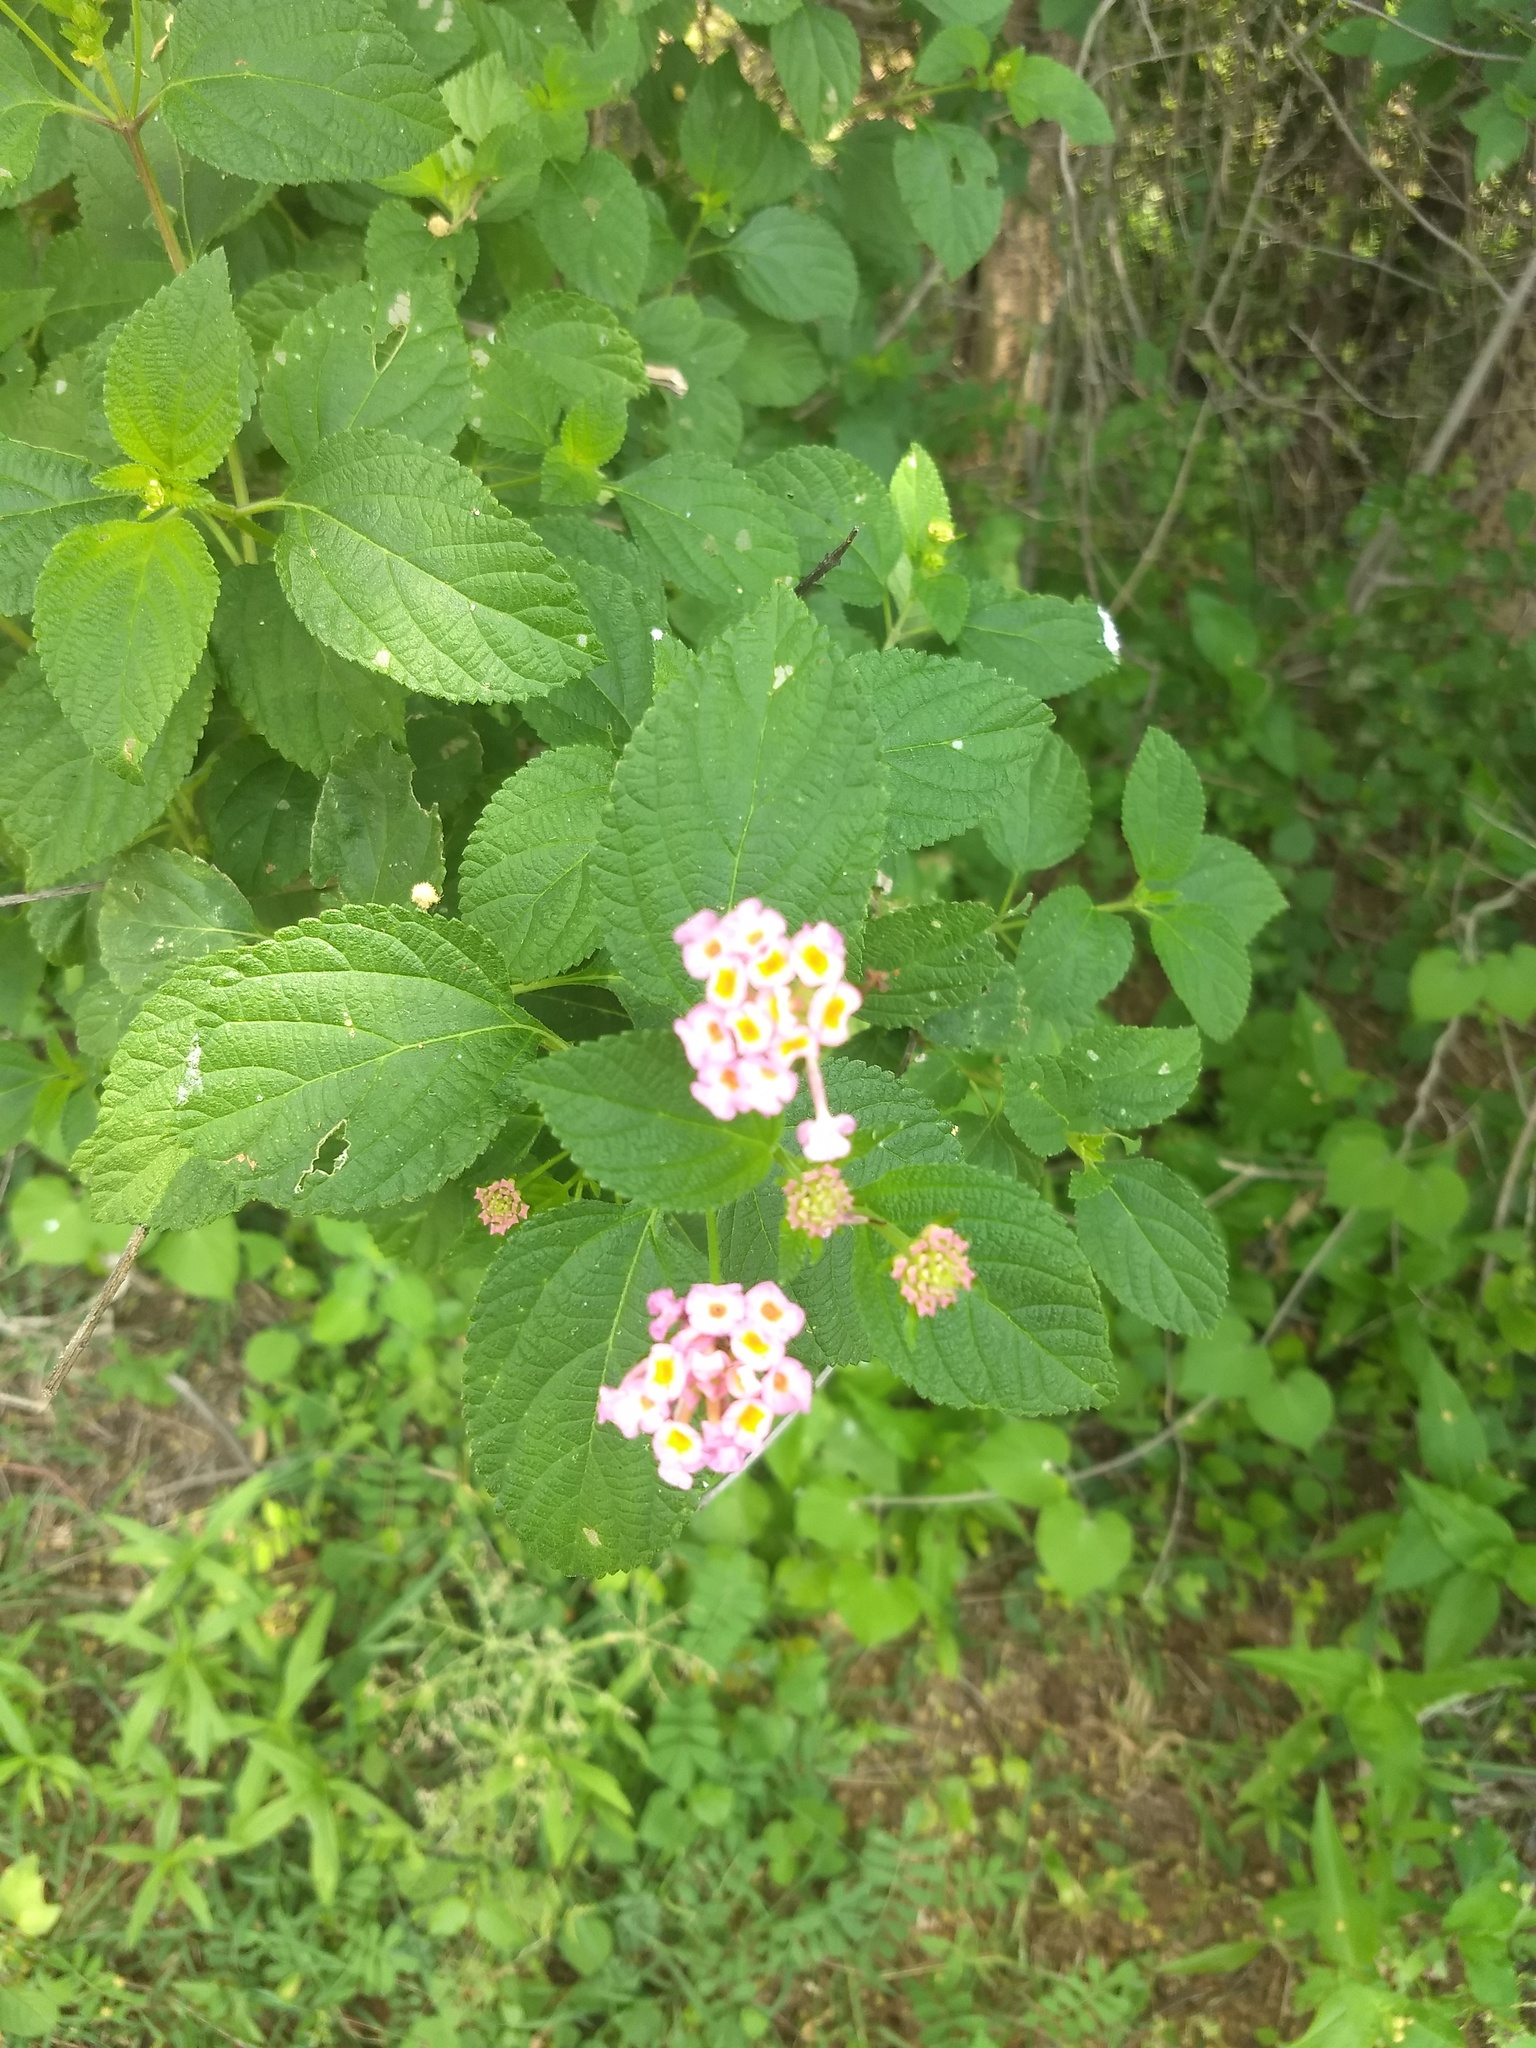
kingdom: Plantae
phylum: Tracheophyta
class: Magnoliopsida
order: Lamiales
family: Verbenaceae
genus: Lantana
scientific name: Lantana camara
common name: Lantana
